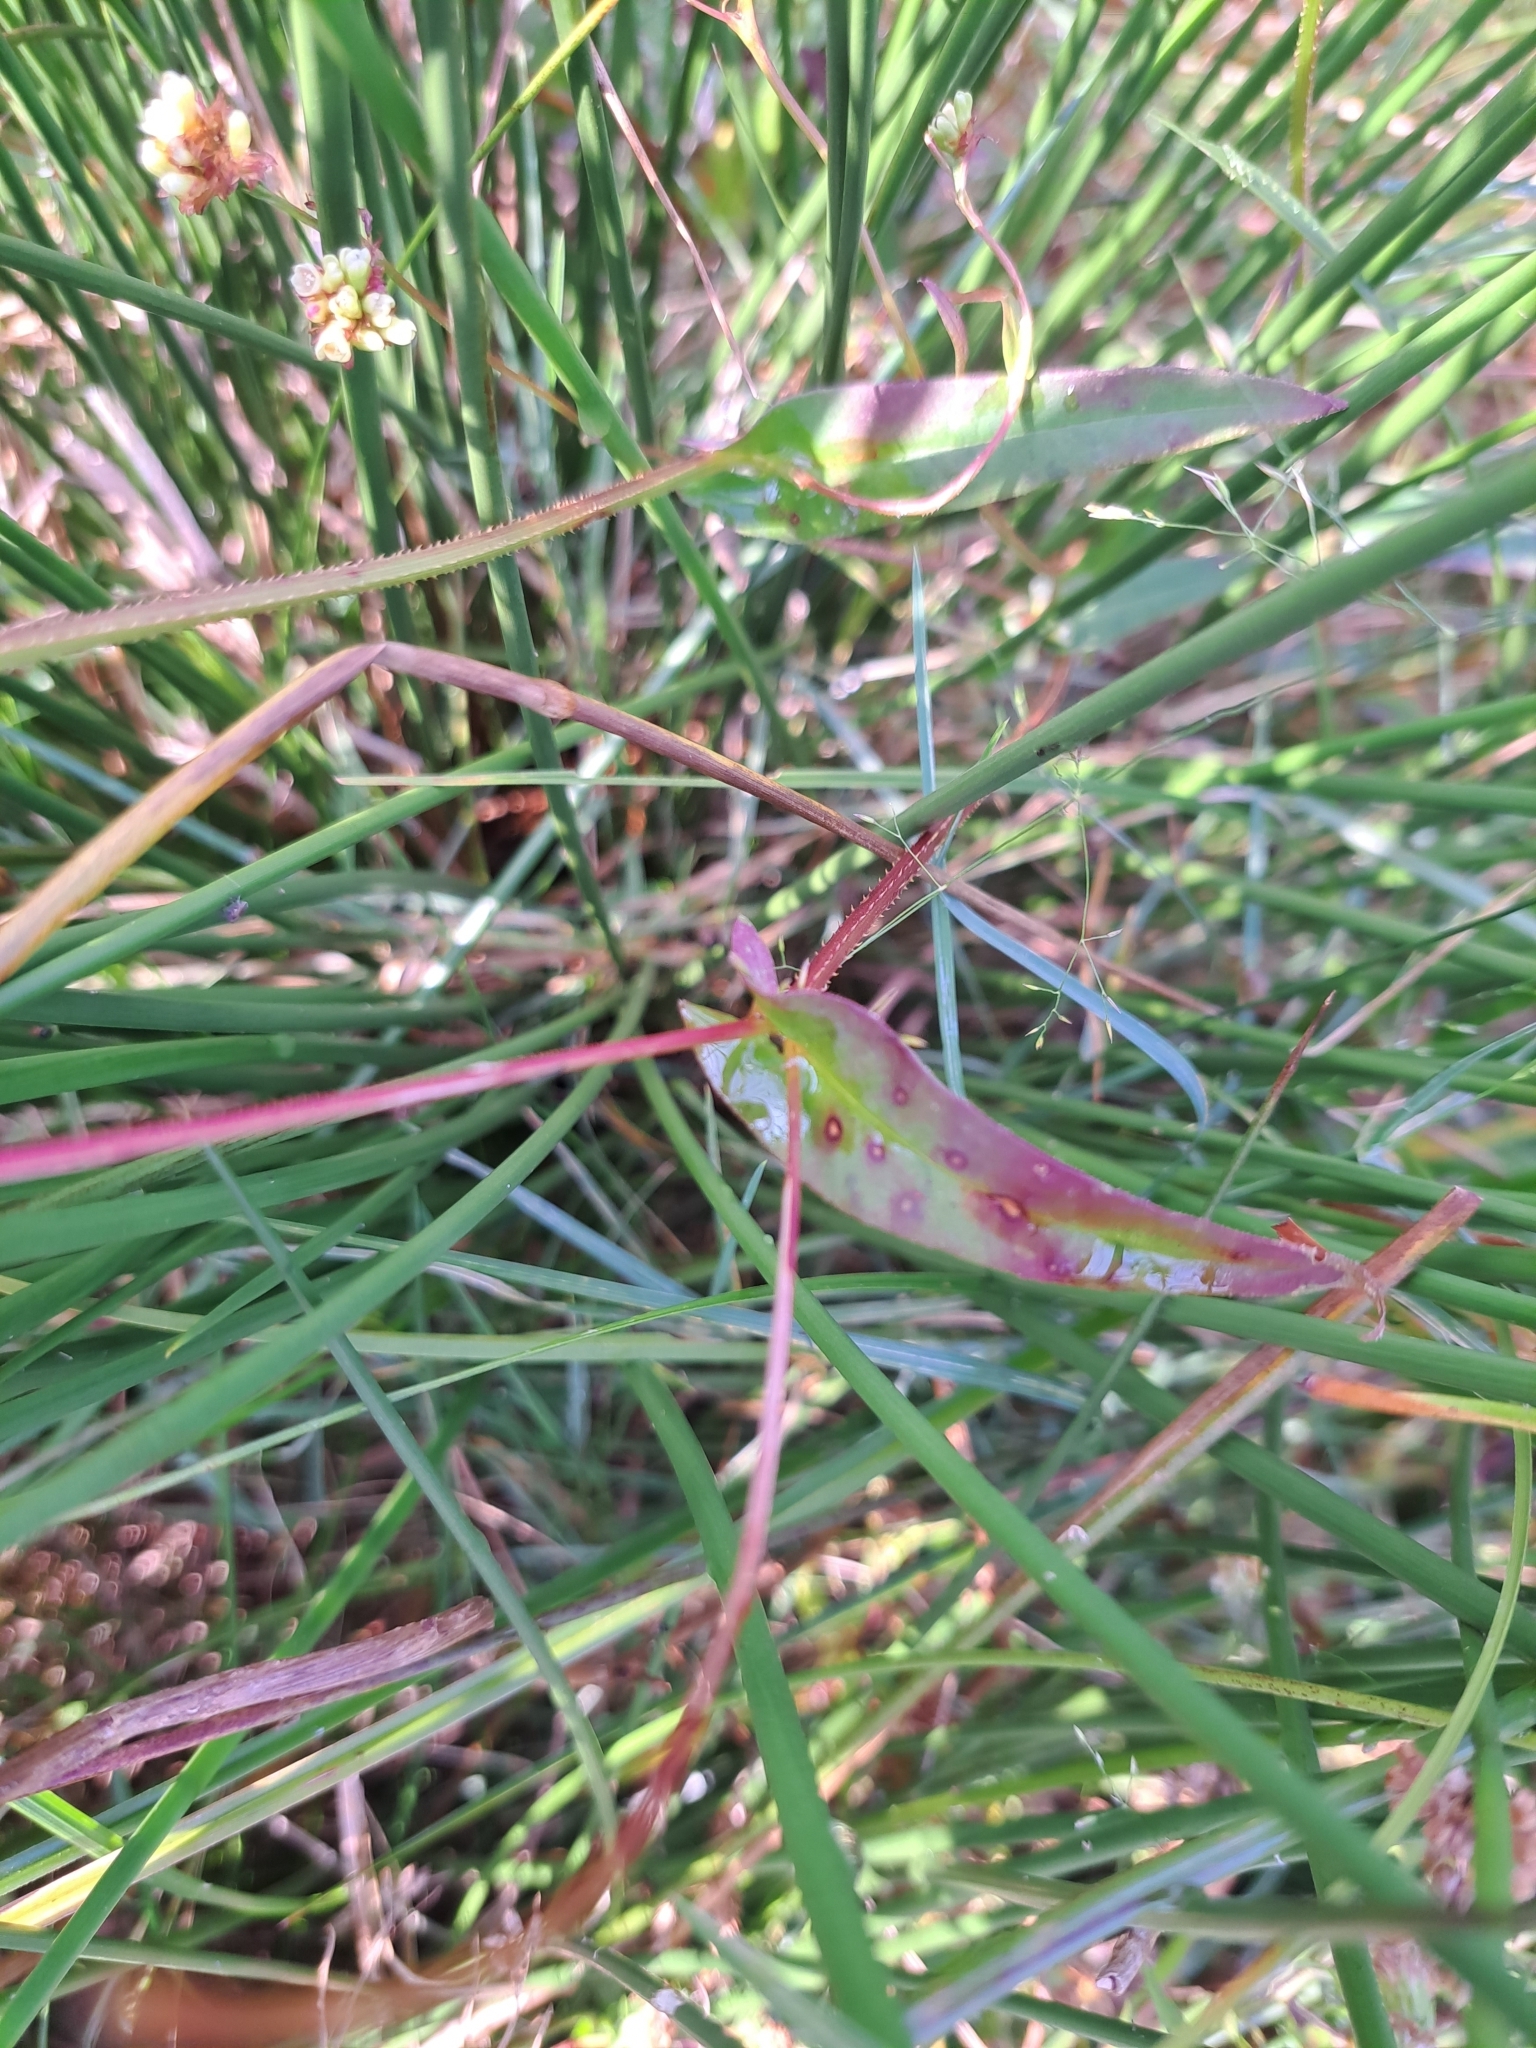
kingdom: Plantae
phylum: Tracheophyta
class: Magnoliopsida
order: Caryophyllales
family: Polygonaceae
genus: Persicaria
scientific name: Persicaria sagittata
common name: American tearthumb
